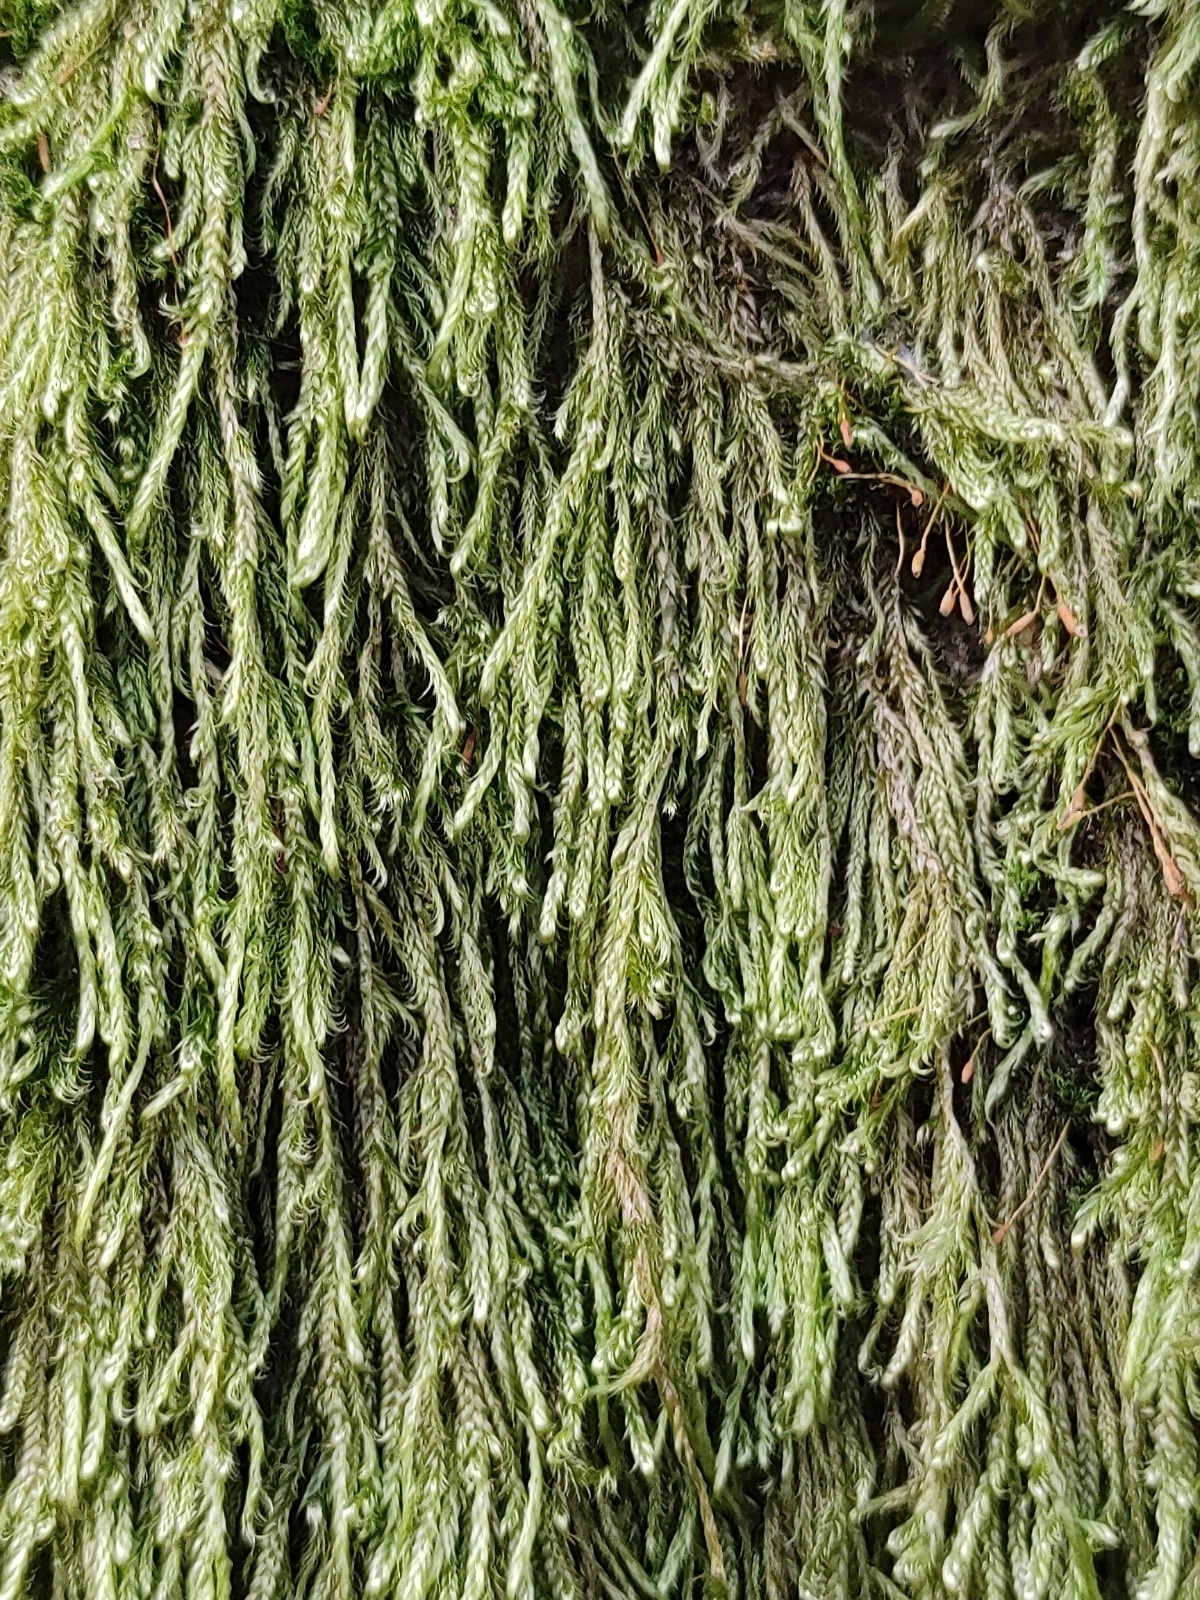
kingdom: Plantae
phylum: Bryophyta
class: Bryopsida
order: Hypnales
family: Hypnaceae
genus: Hypnum
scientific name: Hypnum cupressiforme
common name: Cypress-leaved plait-moss
